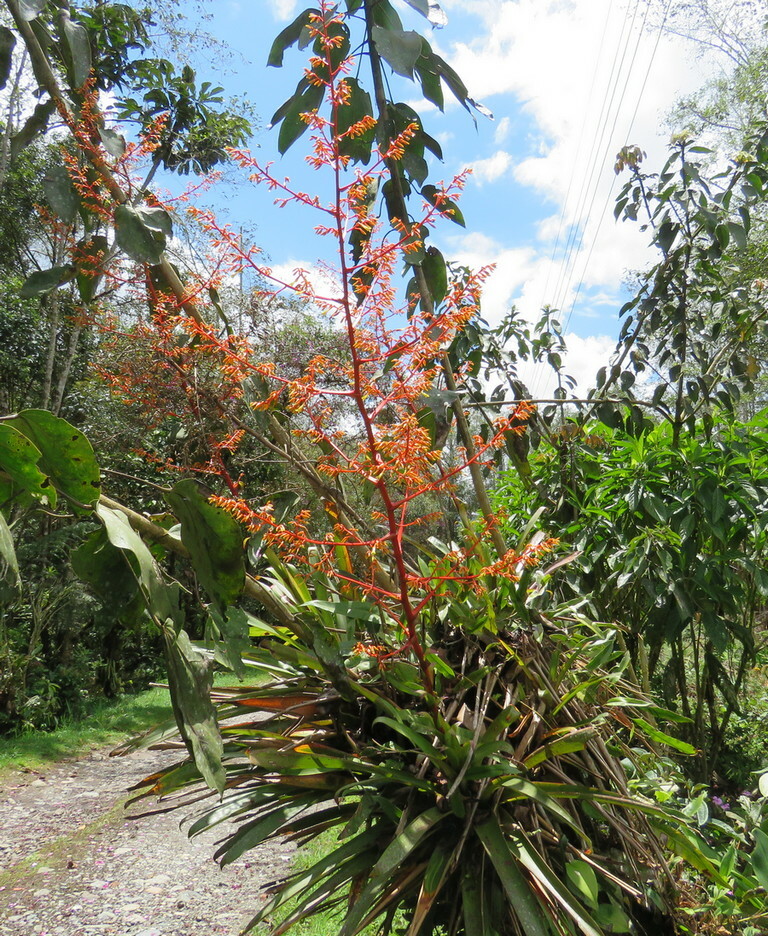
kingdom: Plantae
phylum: Tracheophyta
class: Liliopsida
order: Poales
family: Bromeliaceae
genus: Guzmania
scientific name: Guzmania pennellii
